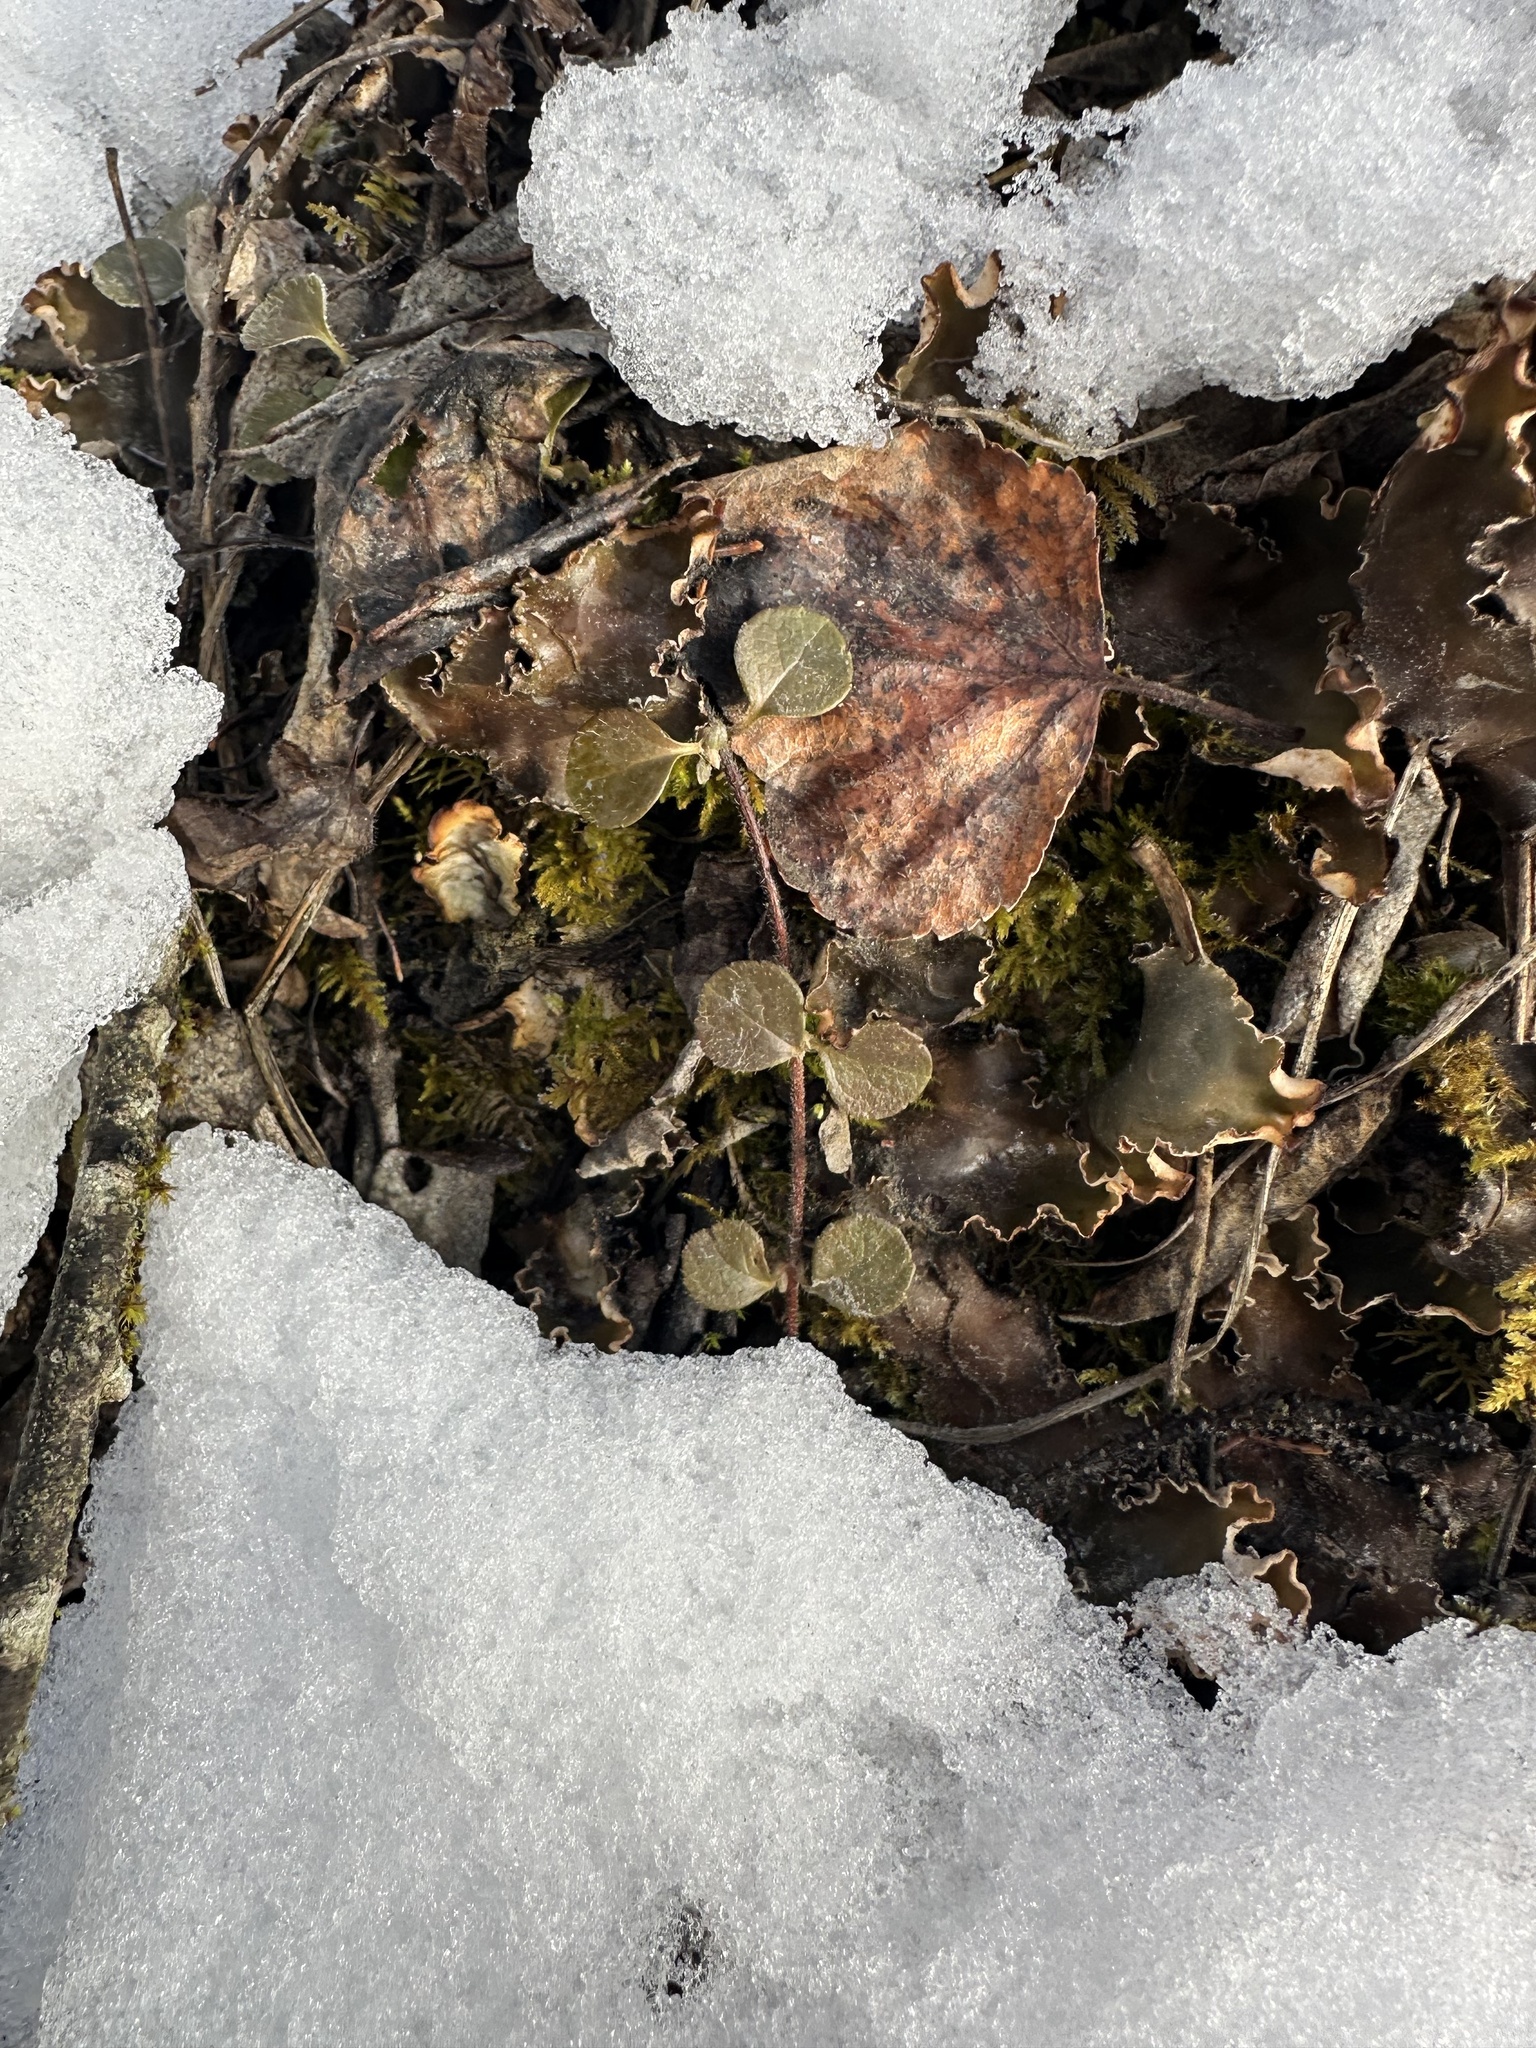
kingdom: Plantae
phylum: Tracheophyta
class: Magnoliopsida
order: Dipsacales
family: Caprifoliaceae
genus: Linnaea
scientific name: Linnaea borealis
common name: Twinflower
